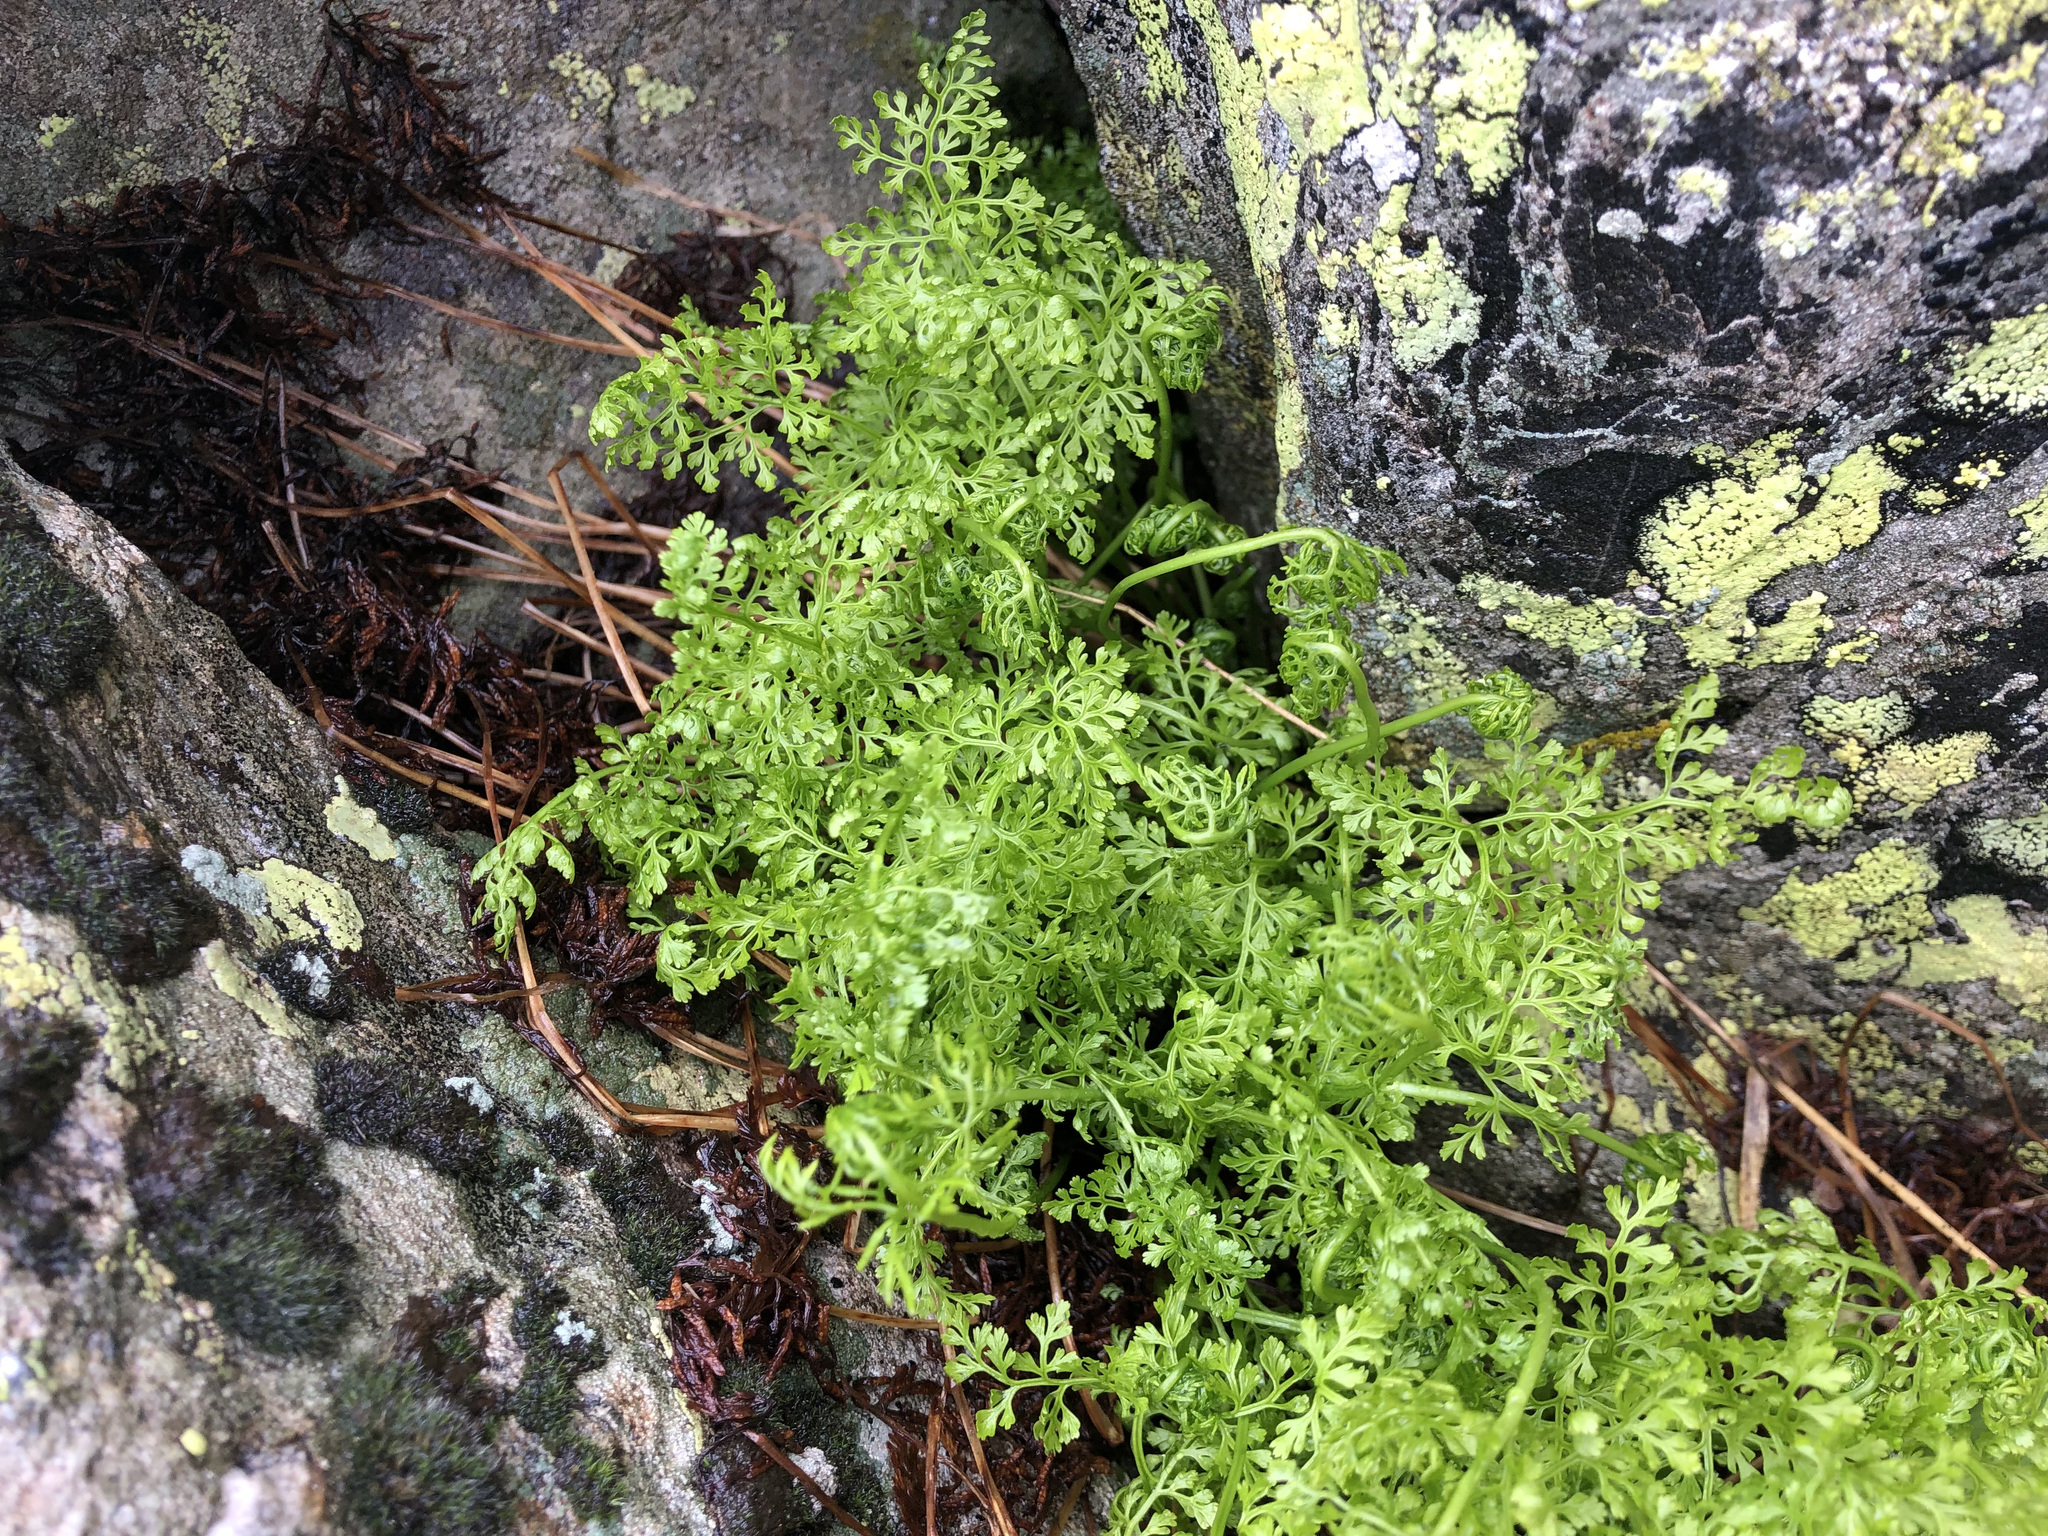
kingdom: Plantae
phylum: Tracheophyta
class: Polypodiopsida
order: Polypodiales
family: Pteridaceae
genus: Cryptogramma
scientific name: Cryptogramma crispa
